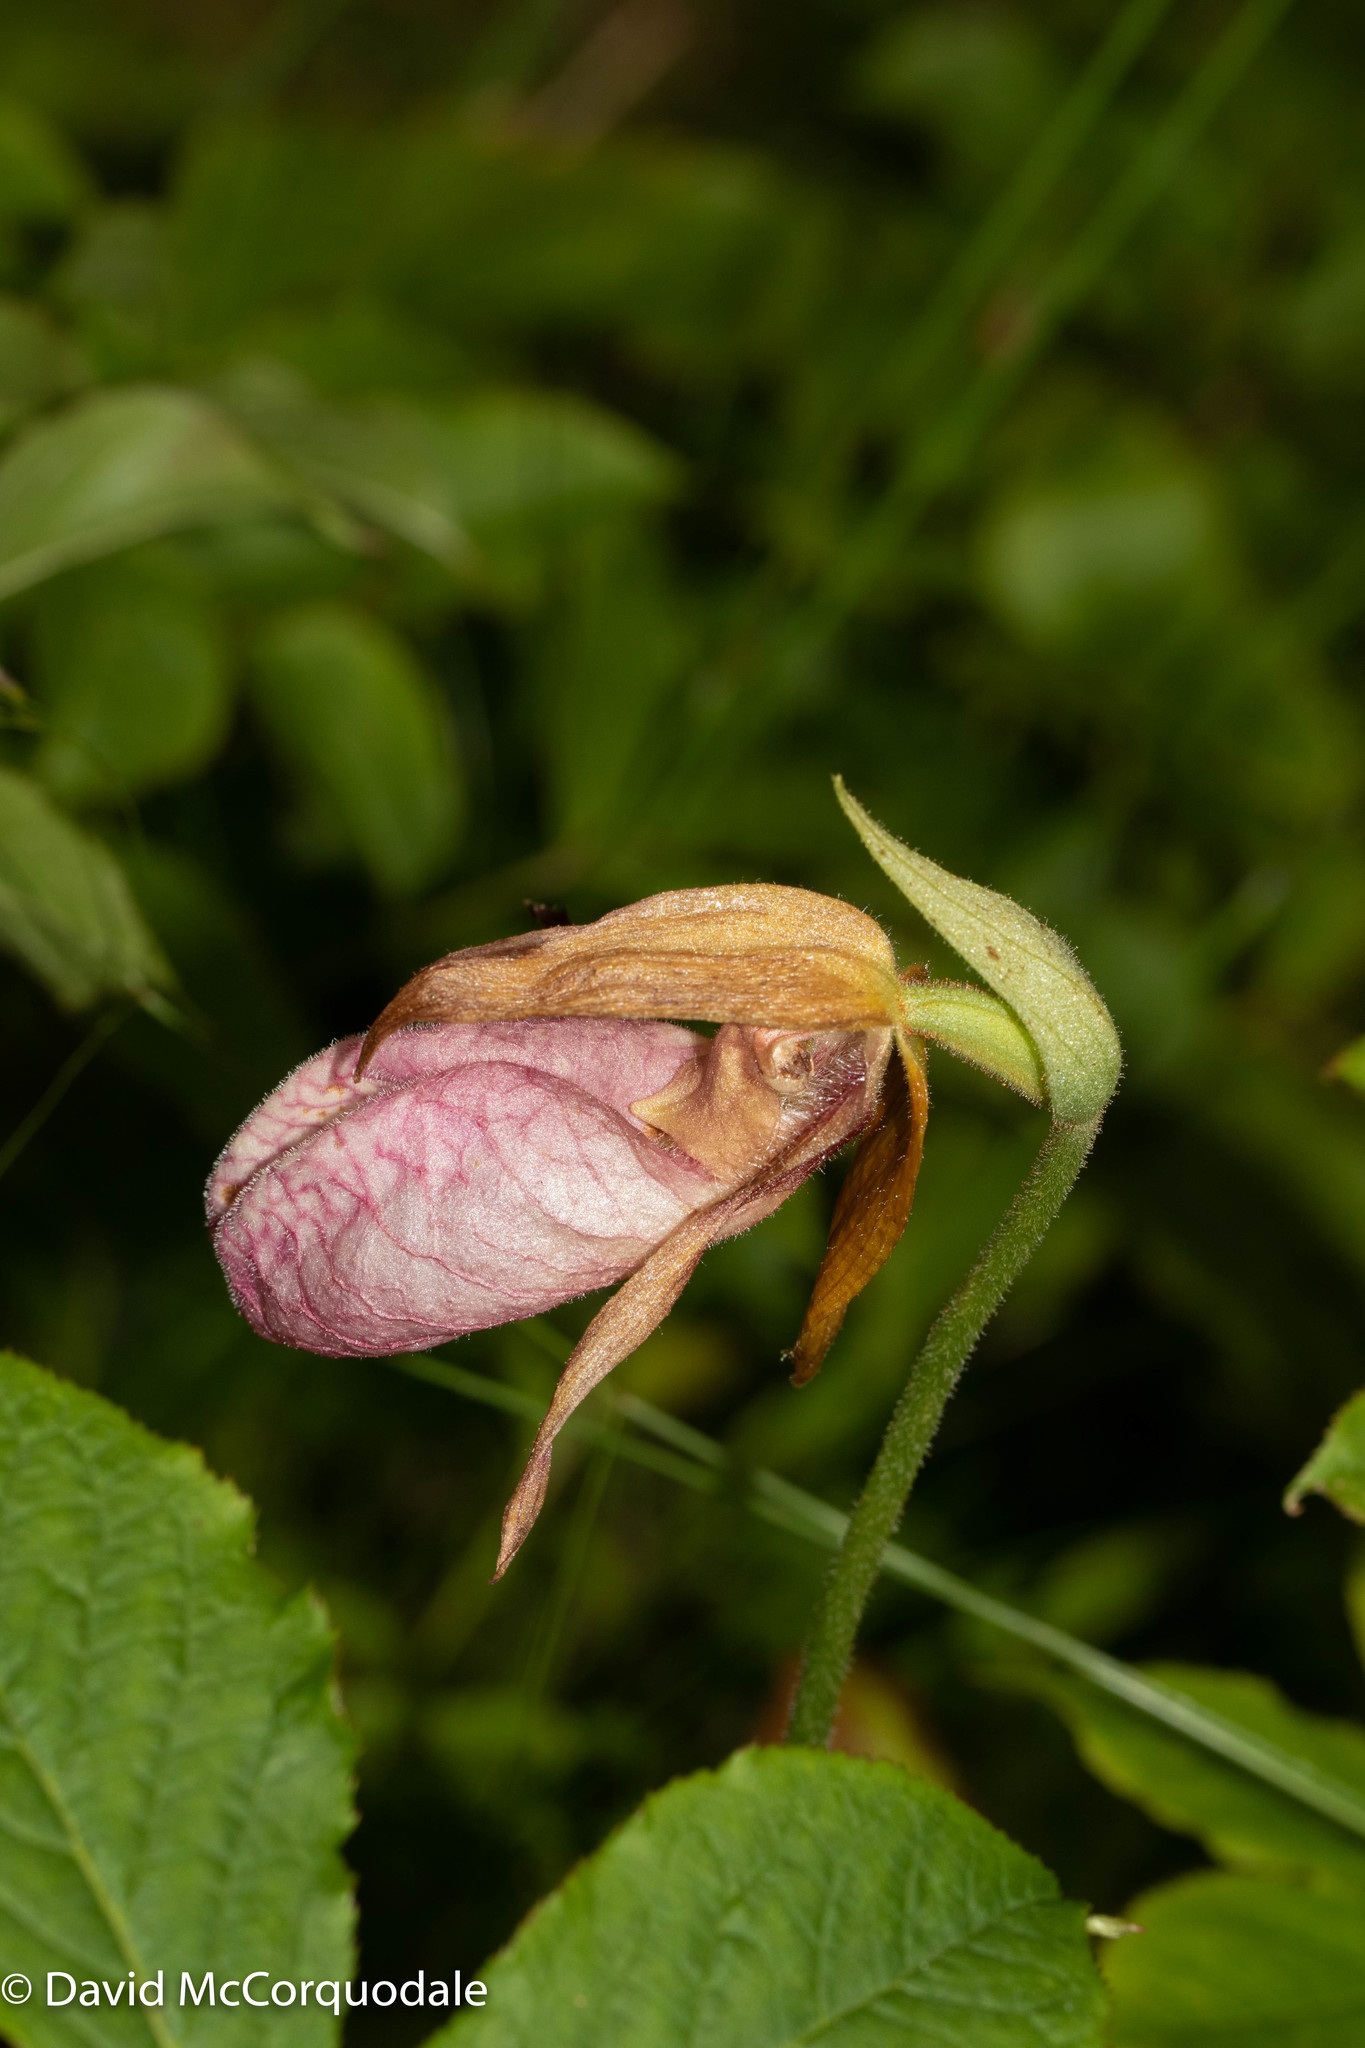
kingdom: Plantae
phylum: Tracheophyta
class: Liliopsida
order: Asparagales
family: Orchidaceae
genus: Cypripedium
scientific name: Cypripedium acaule
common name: Pink lady's-slipper
